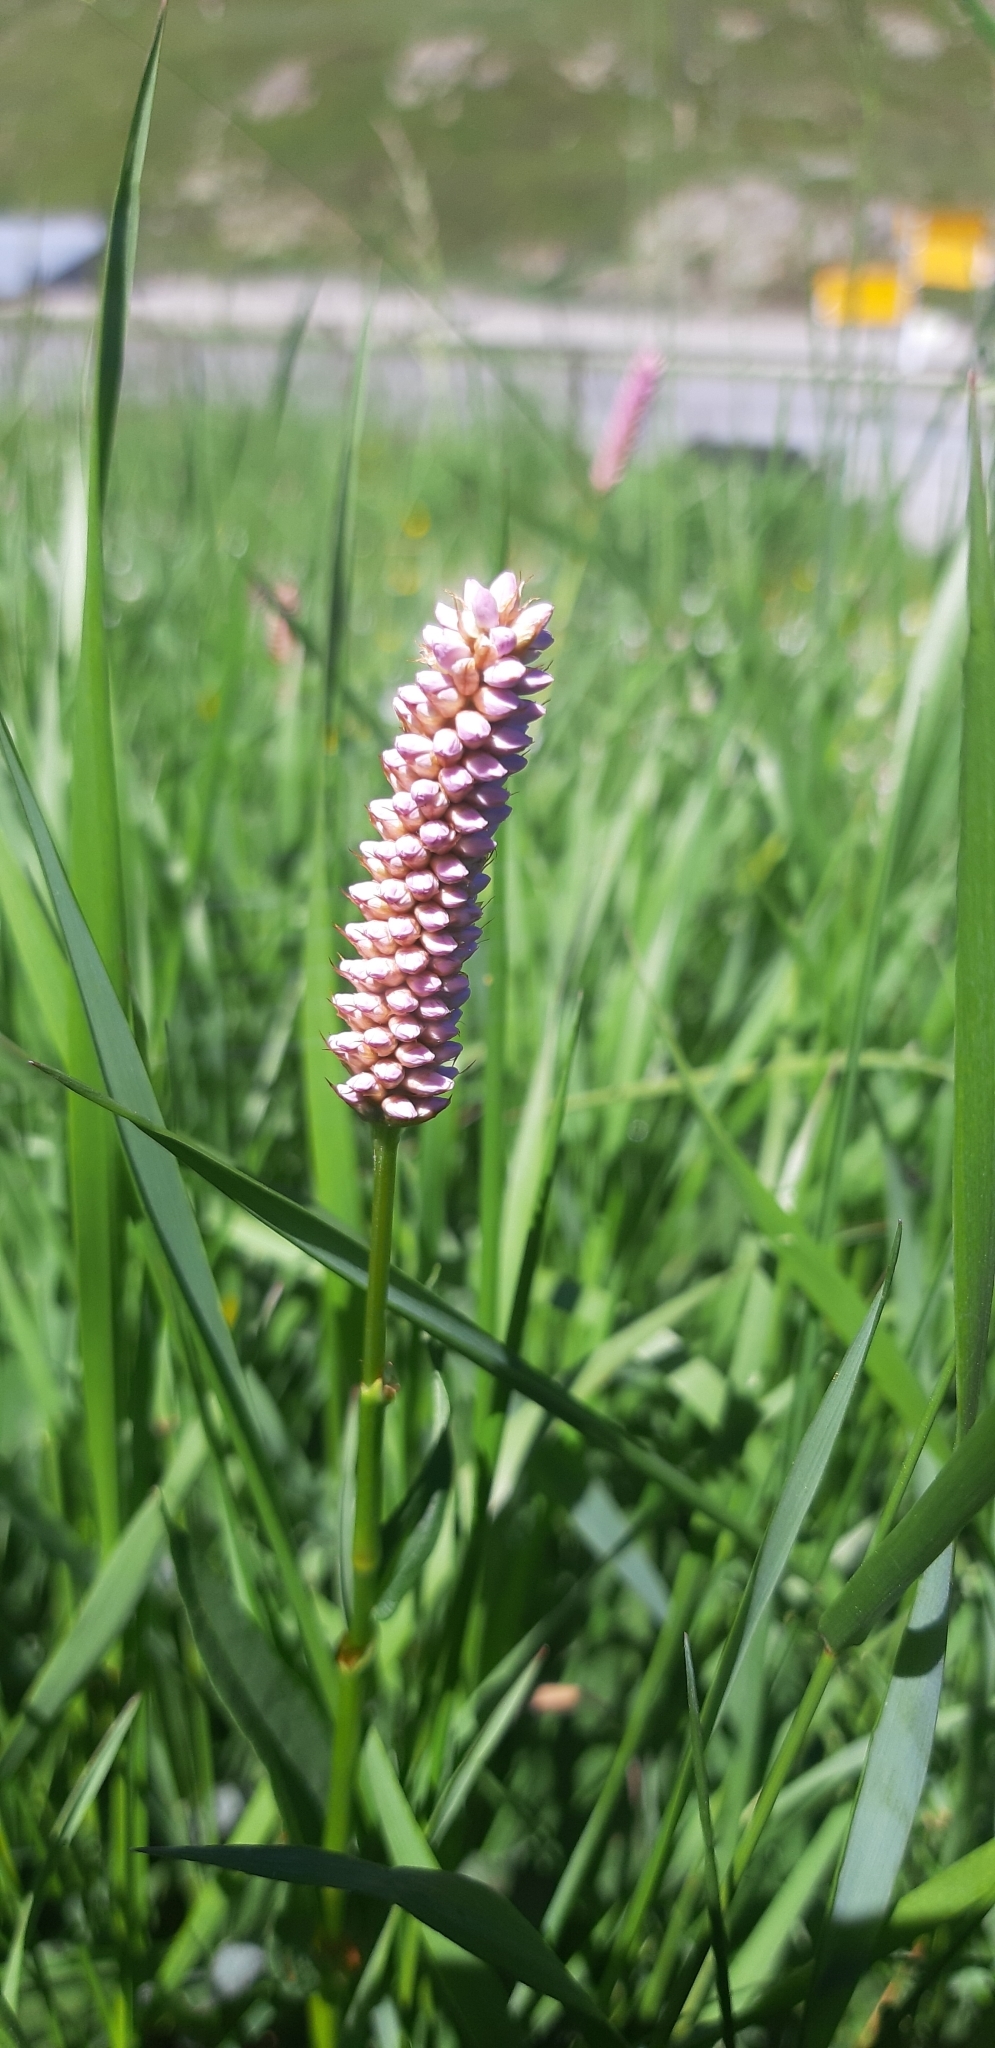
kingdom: Plantae
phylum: Tracheophyta
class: Magnoliopsida
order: Caryophyllales
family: Polygonaceae
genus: Bistorta
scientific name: Bistorta officinalis
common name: Common bistort
